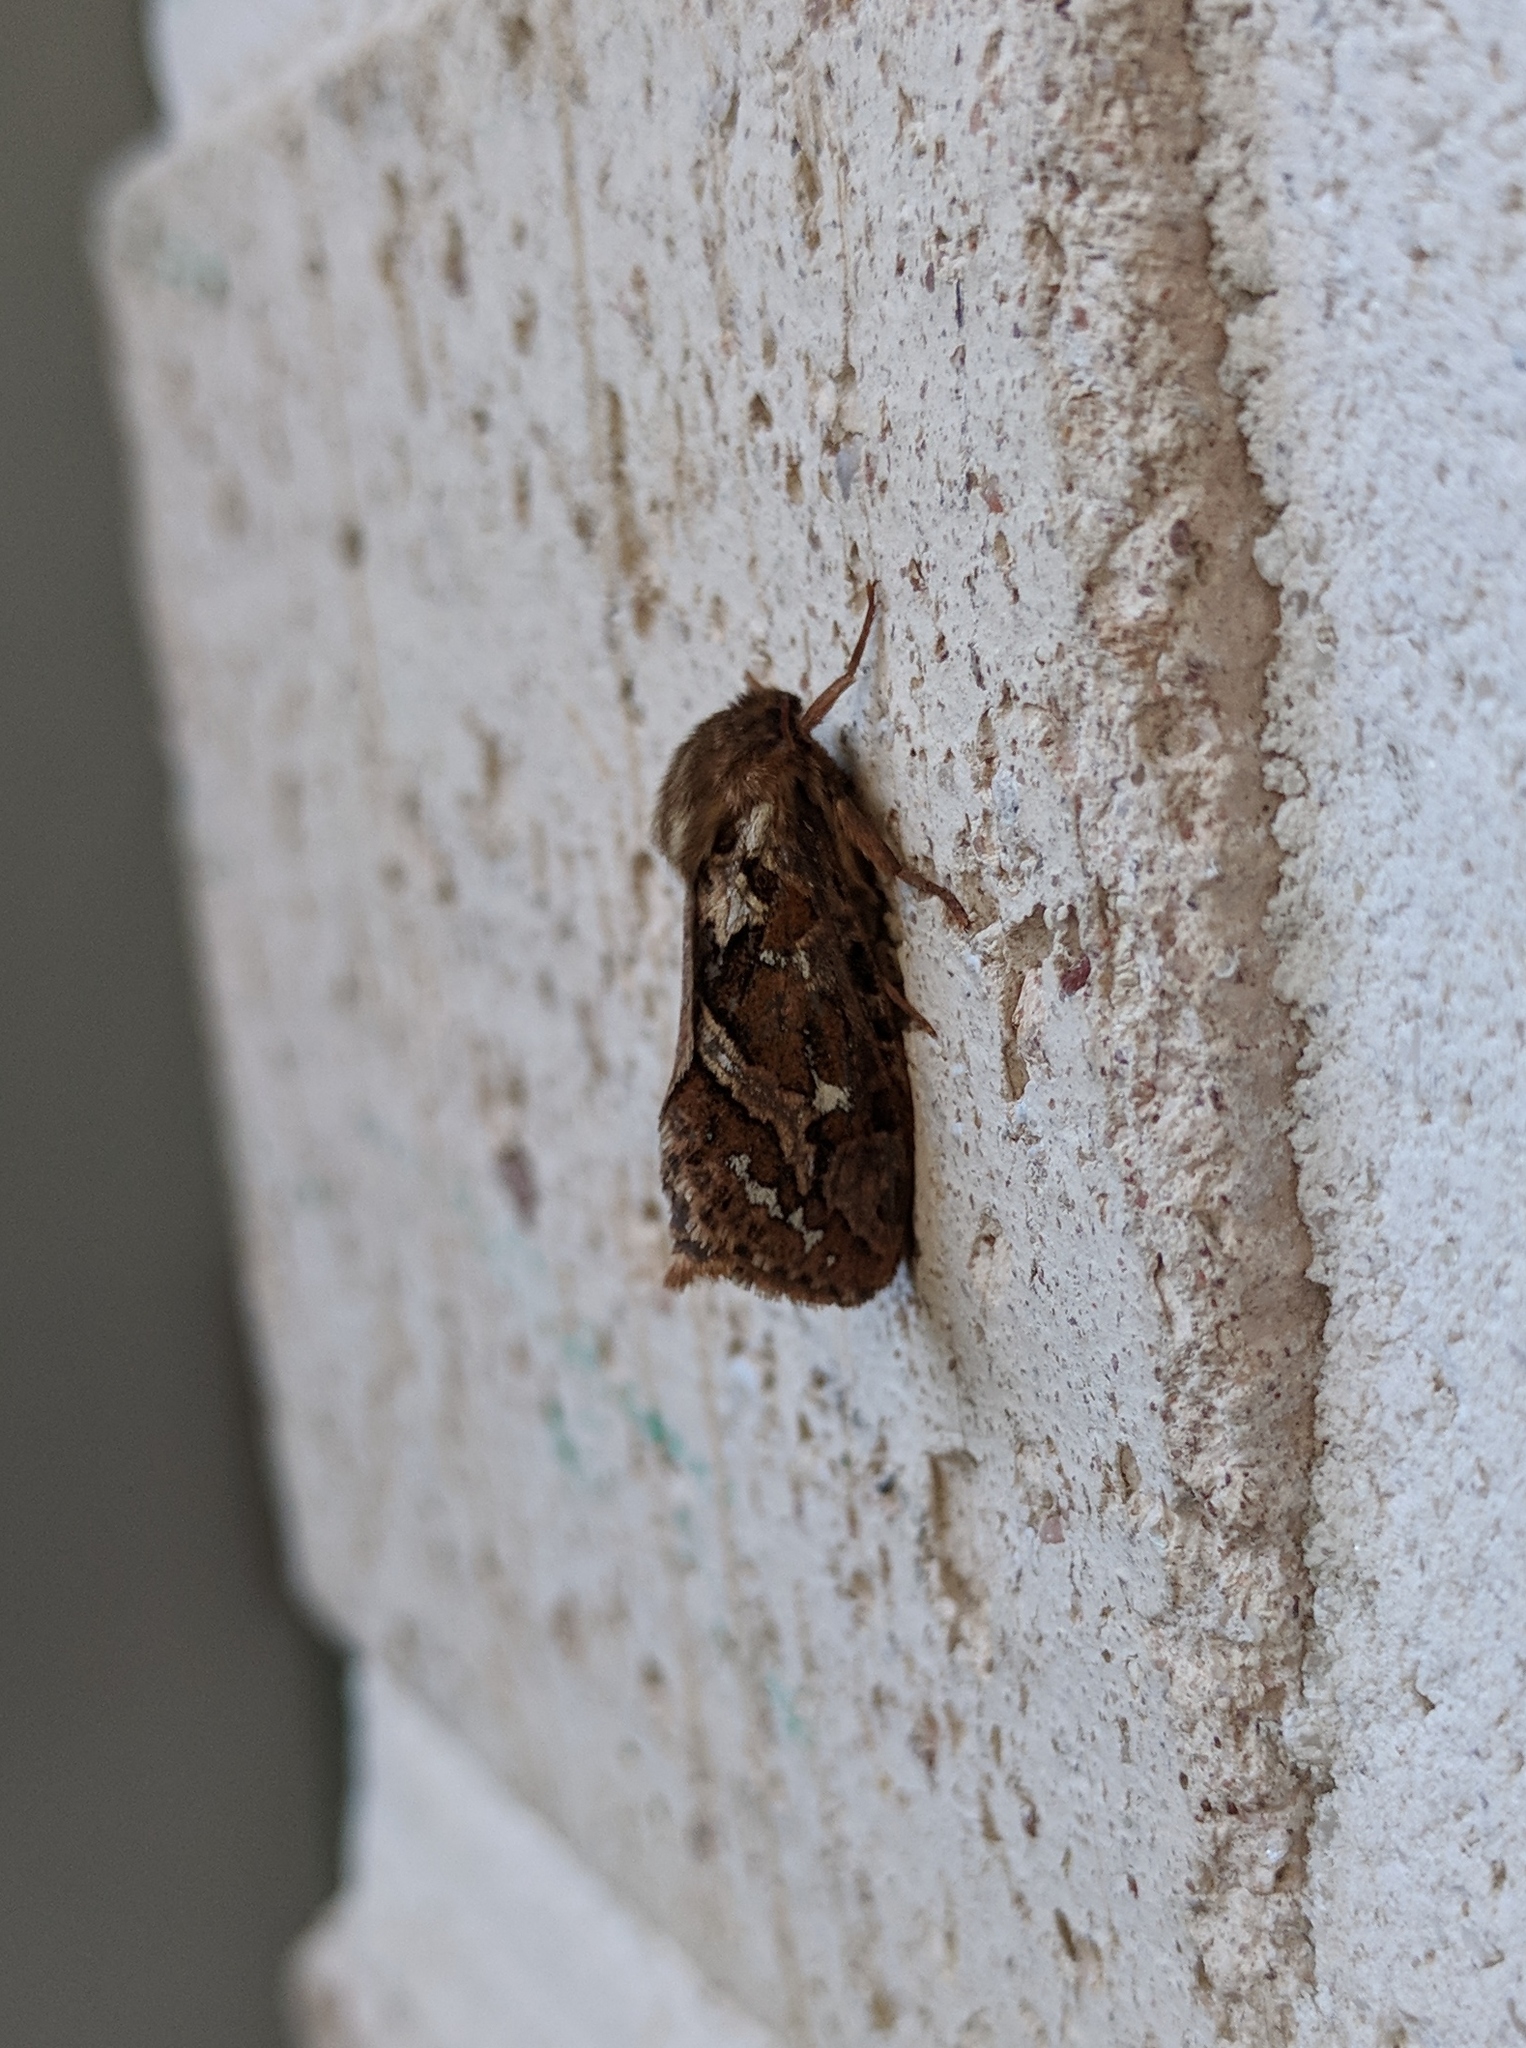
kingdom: Animalia
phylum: Arthropoda
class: Insecta
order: Lepidoptera
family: Hepialidae
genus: Korscheltellus
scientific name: Korscheltellus fusconebulosus
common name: Map-winged swift
